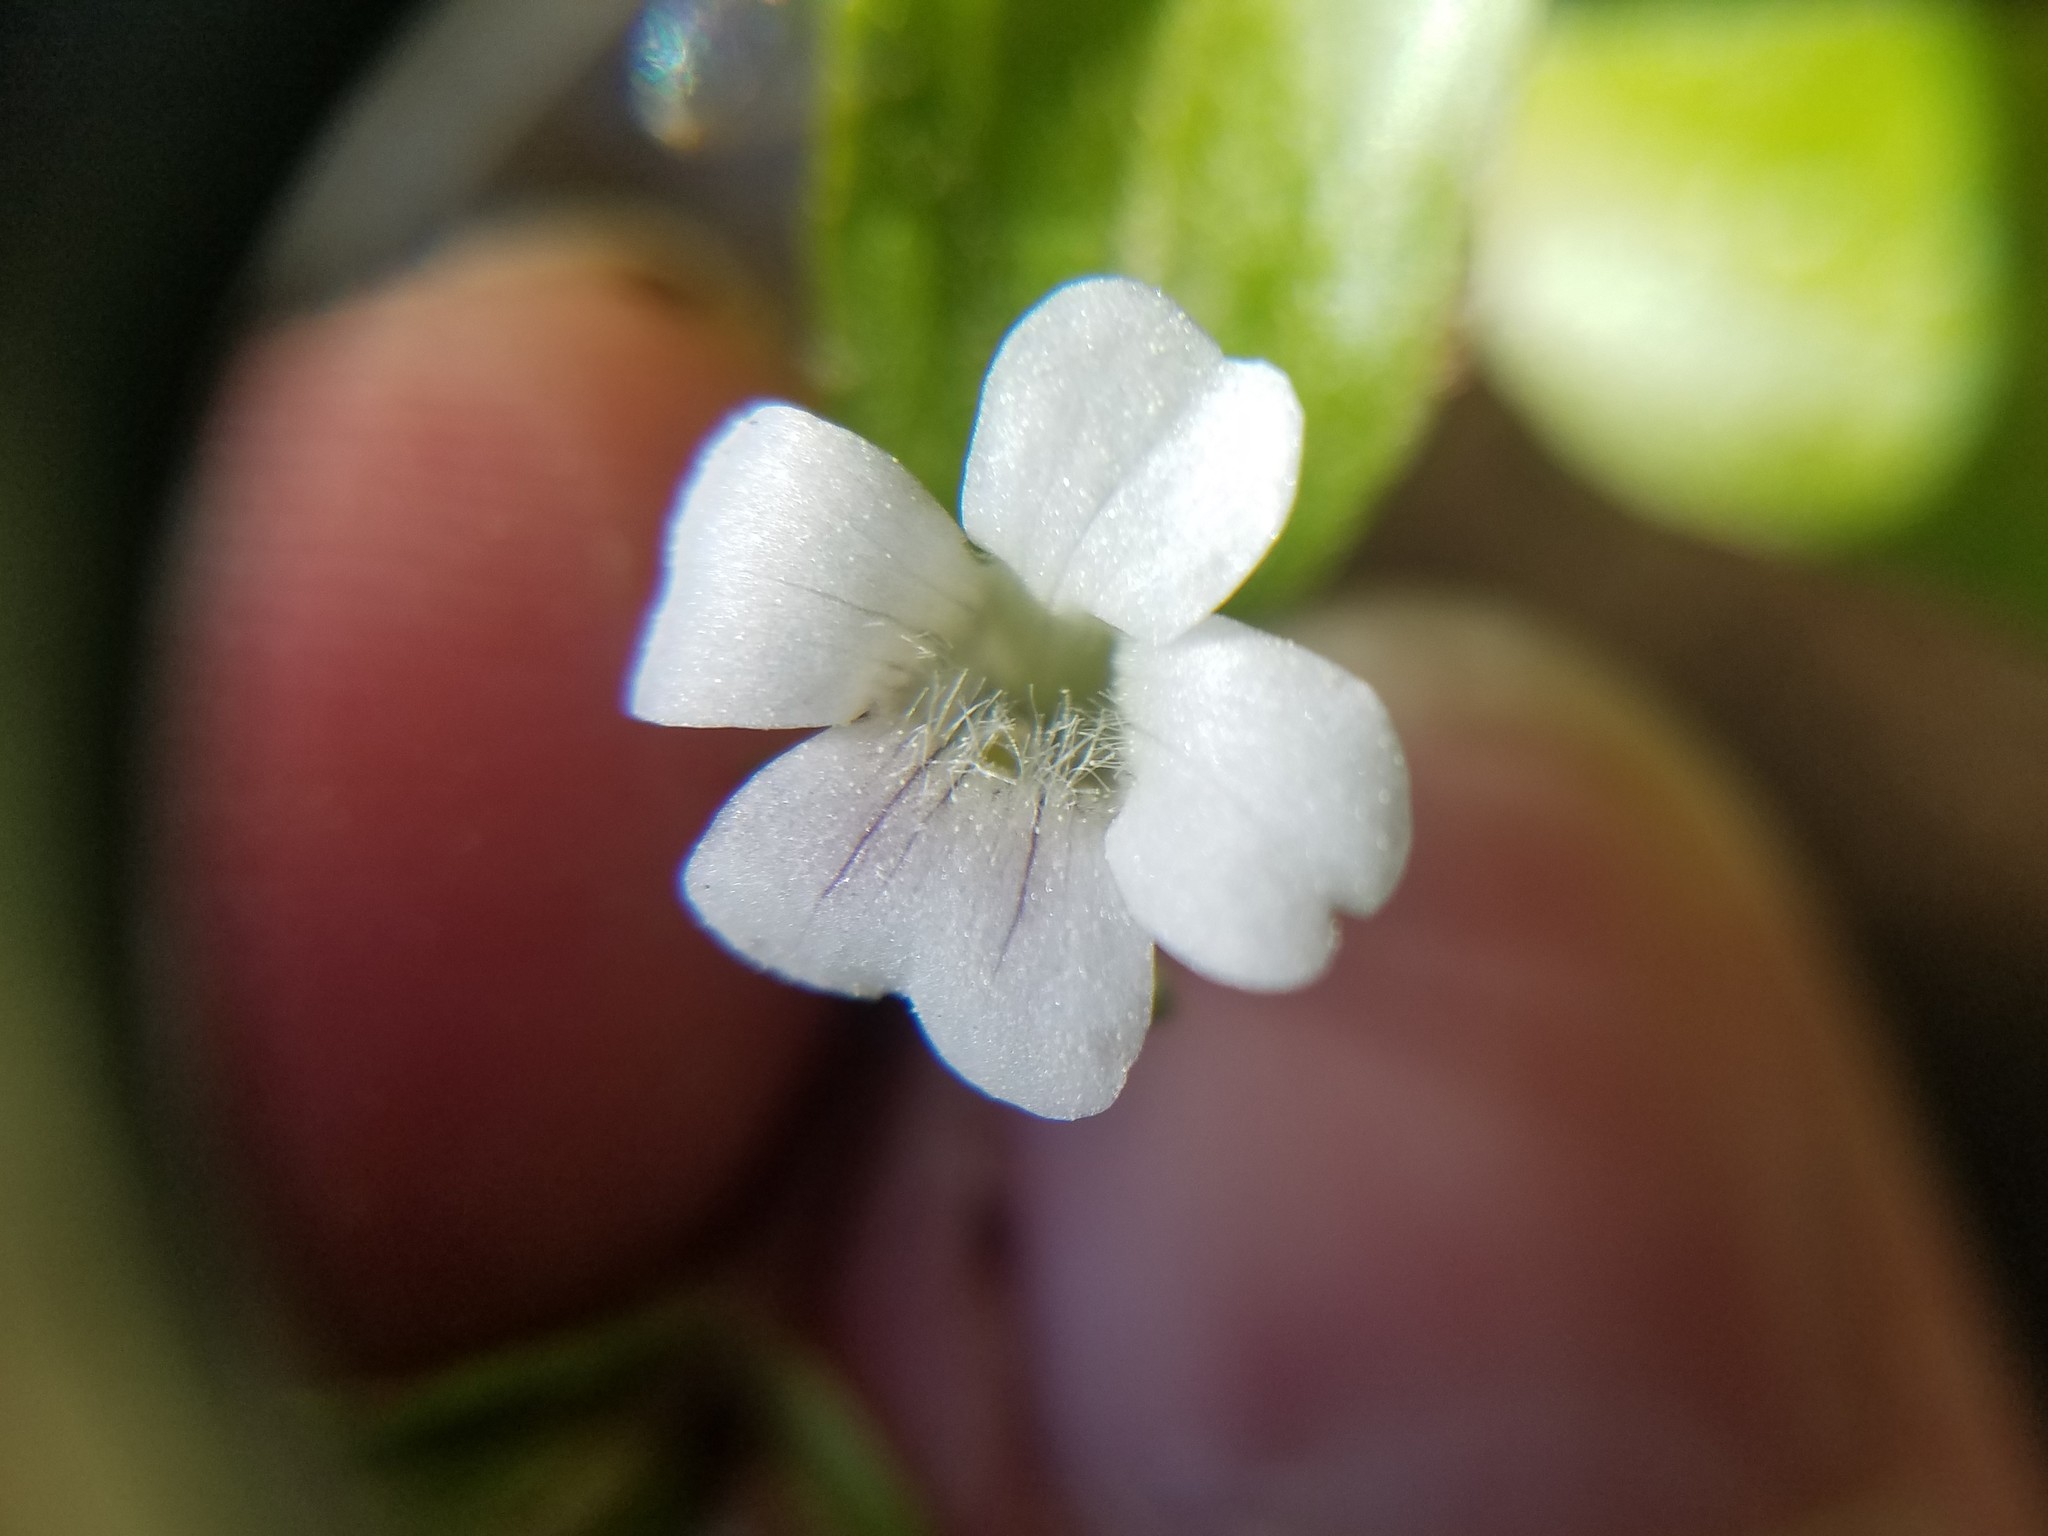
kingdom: Plantae
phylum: Tracheophyta
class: Magnoliopsida
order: Lamiales
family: Plantaginaceae
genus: Gratiola
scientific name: Gratiola virginiana
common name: Roundfruit hedgehyssop
